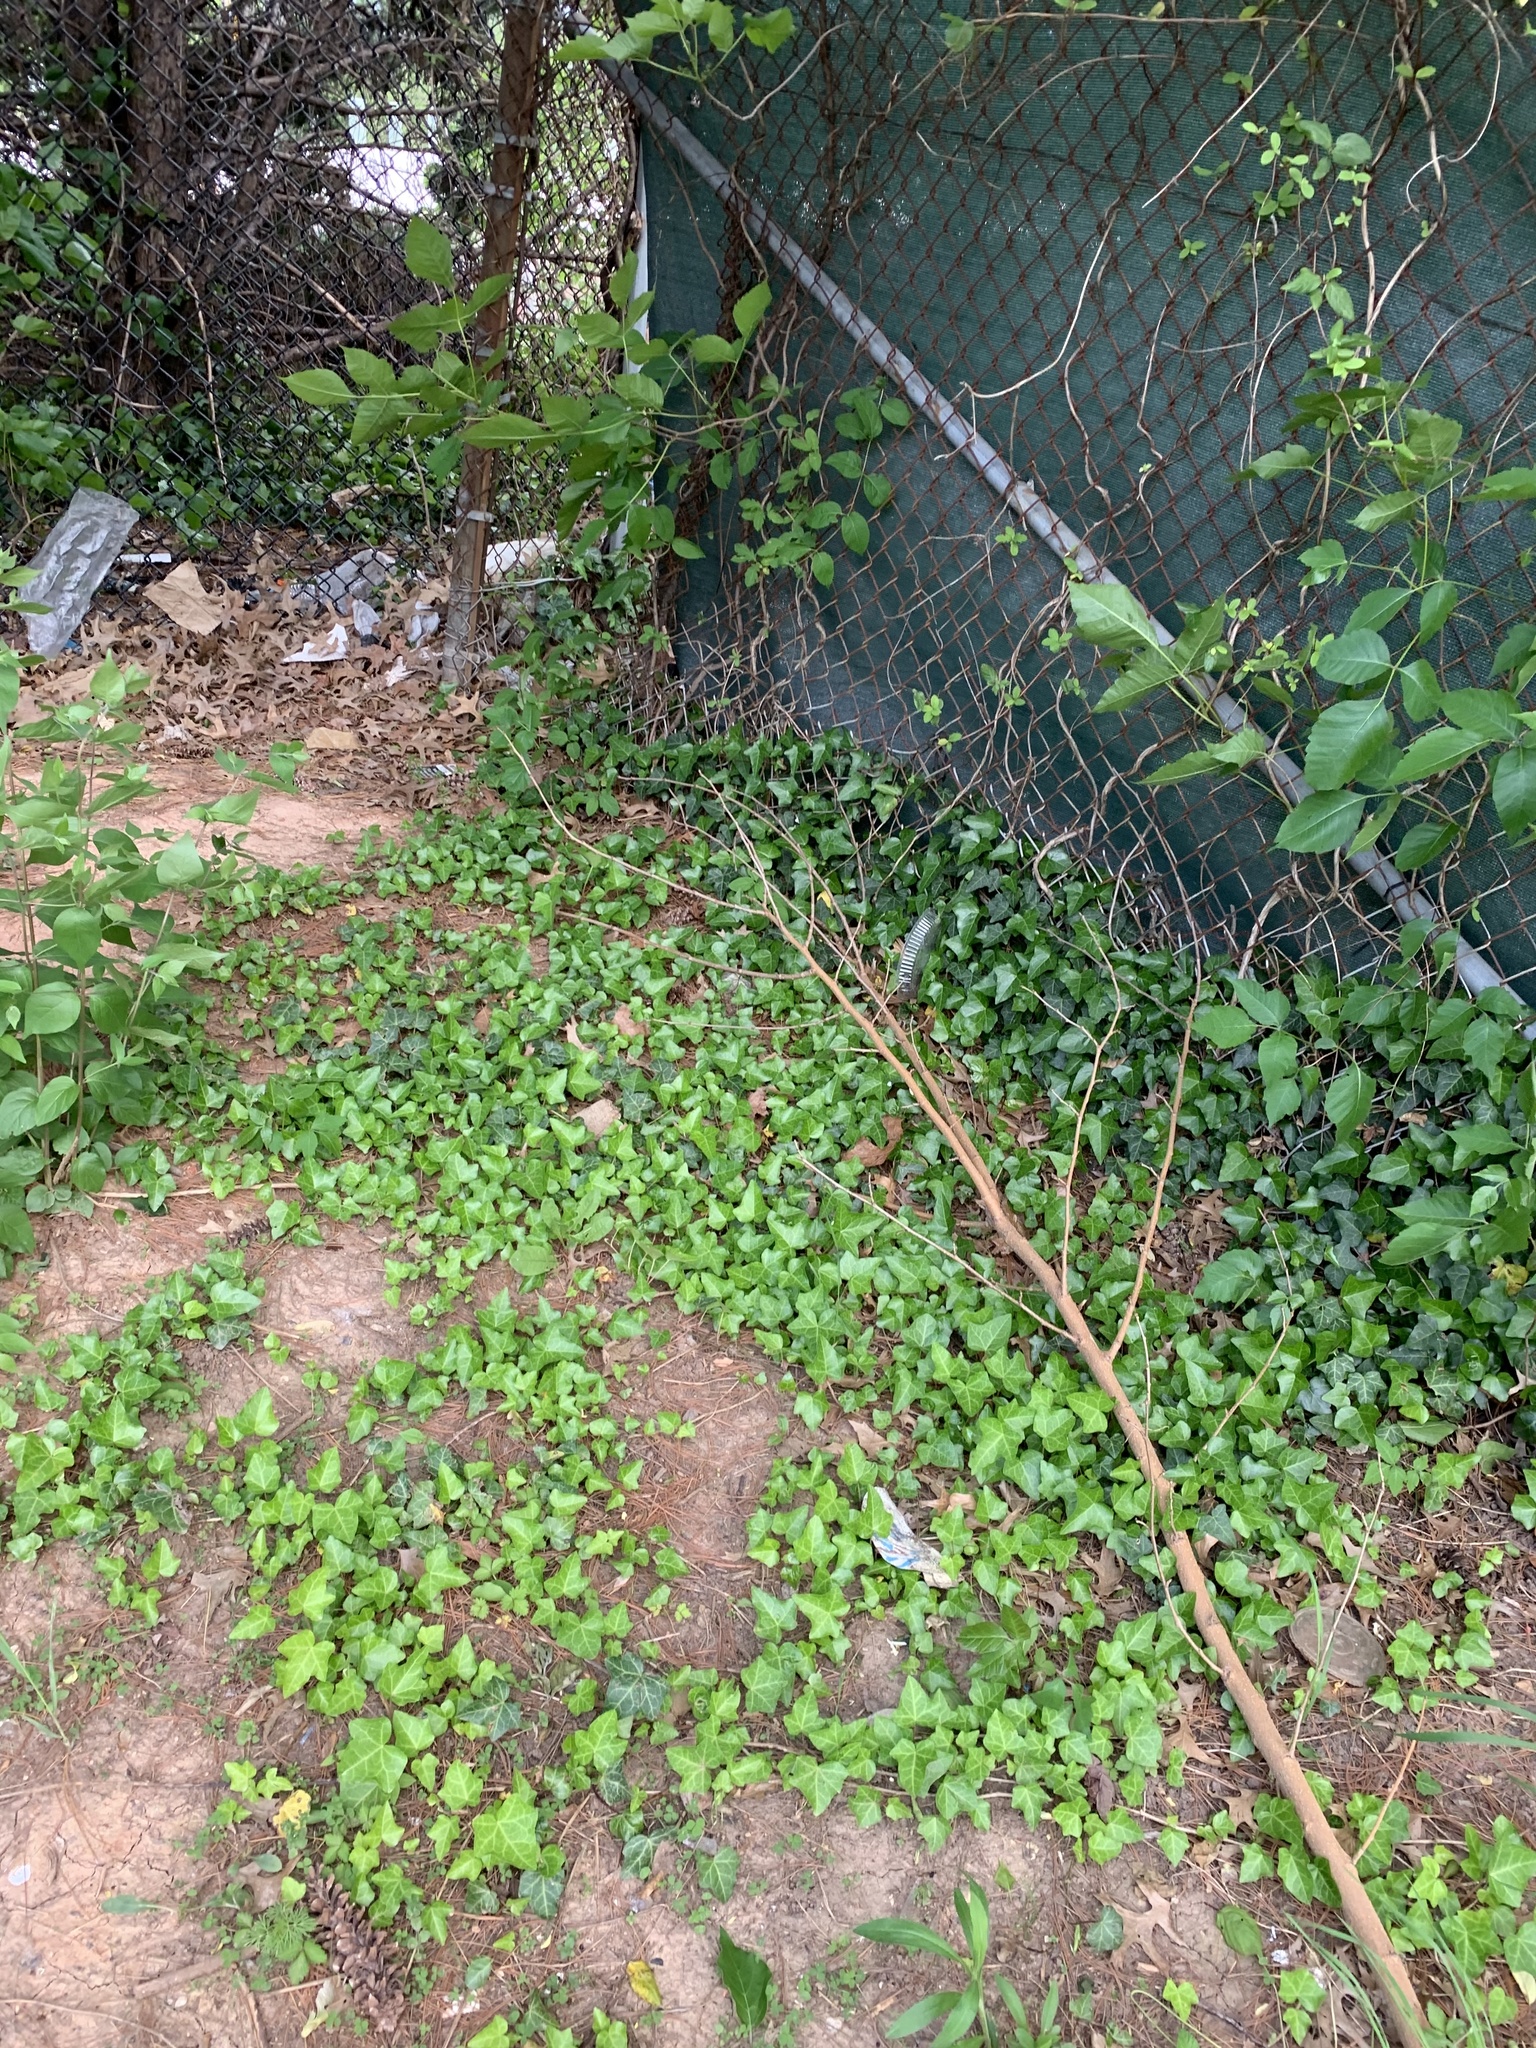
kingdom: Plantae
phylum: Tracheophyta
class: Magnoliopsida
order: Apiales
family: Araliaceae
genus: Hedera
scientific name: Hedera helix
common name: Ivy
